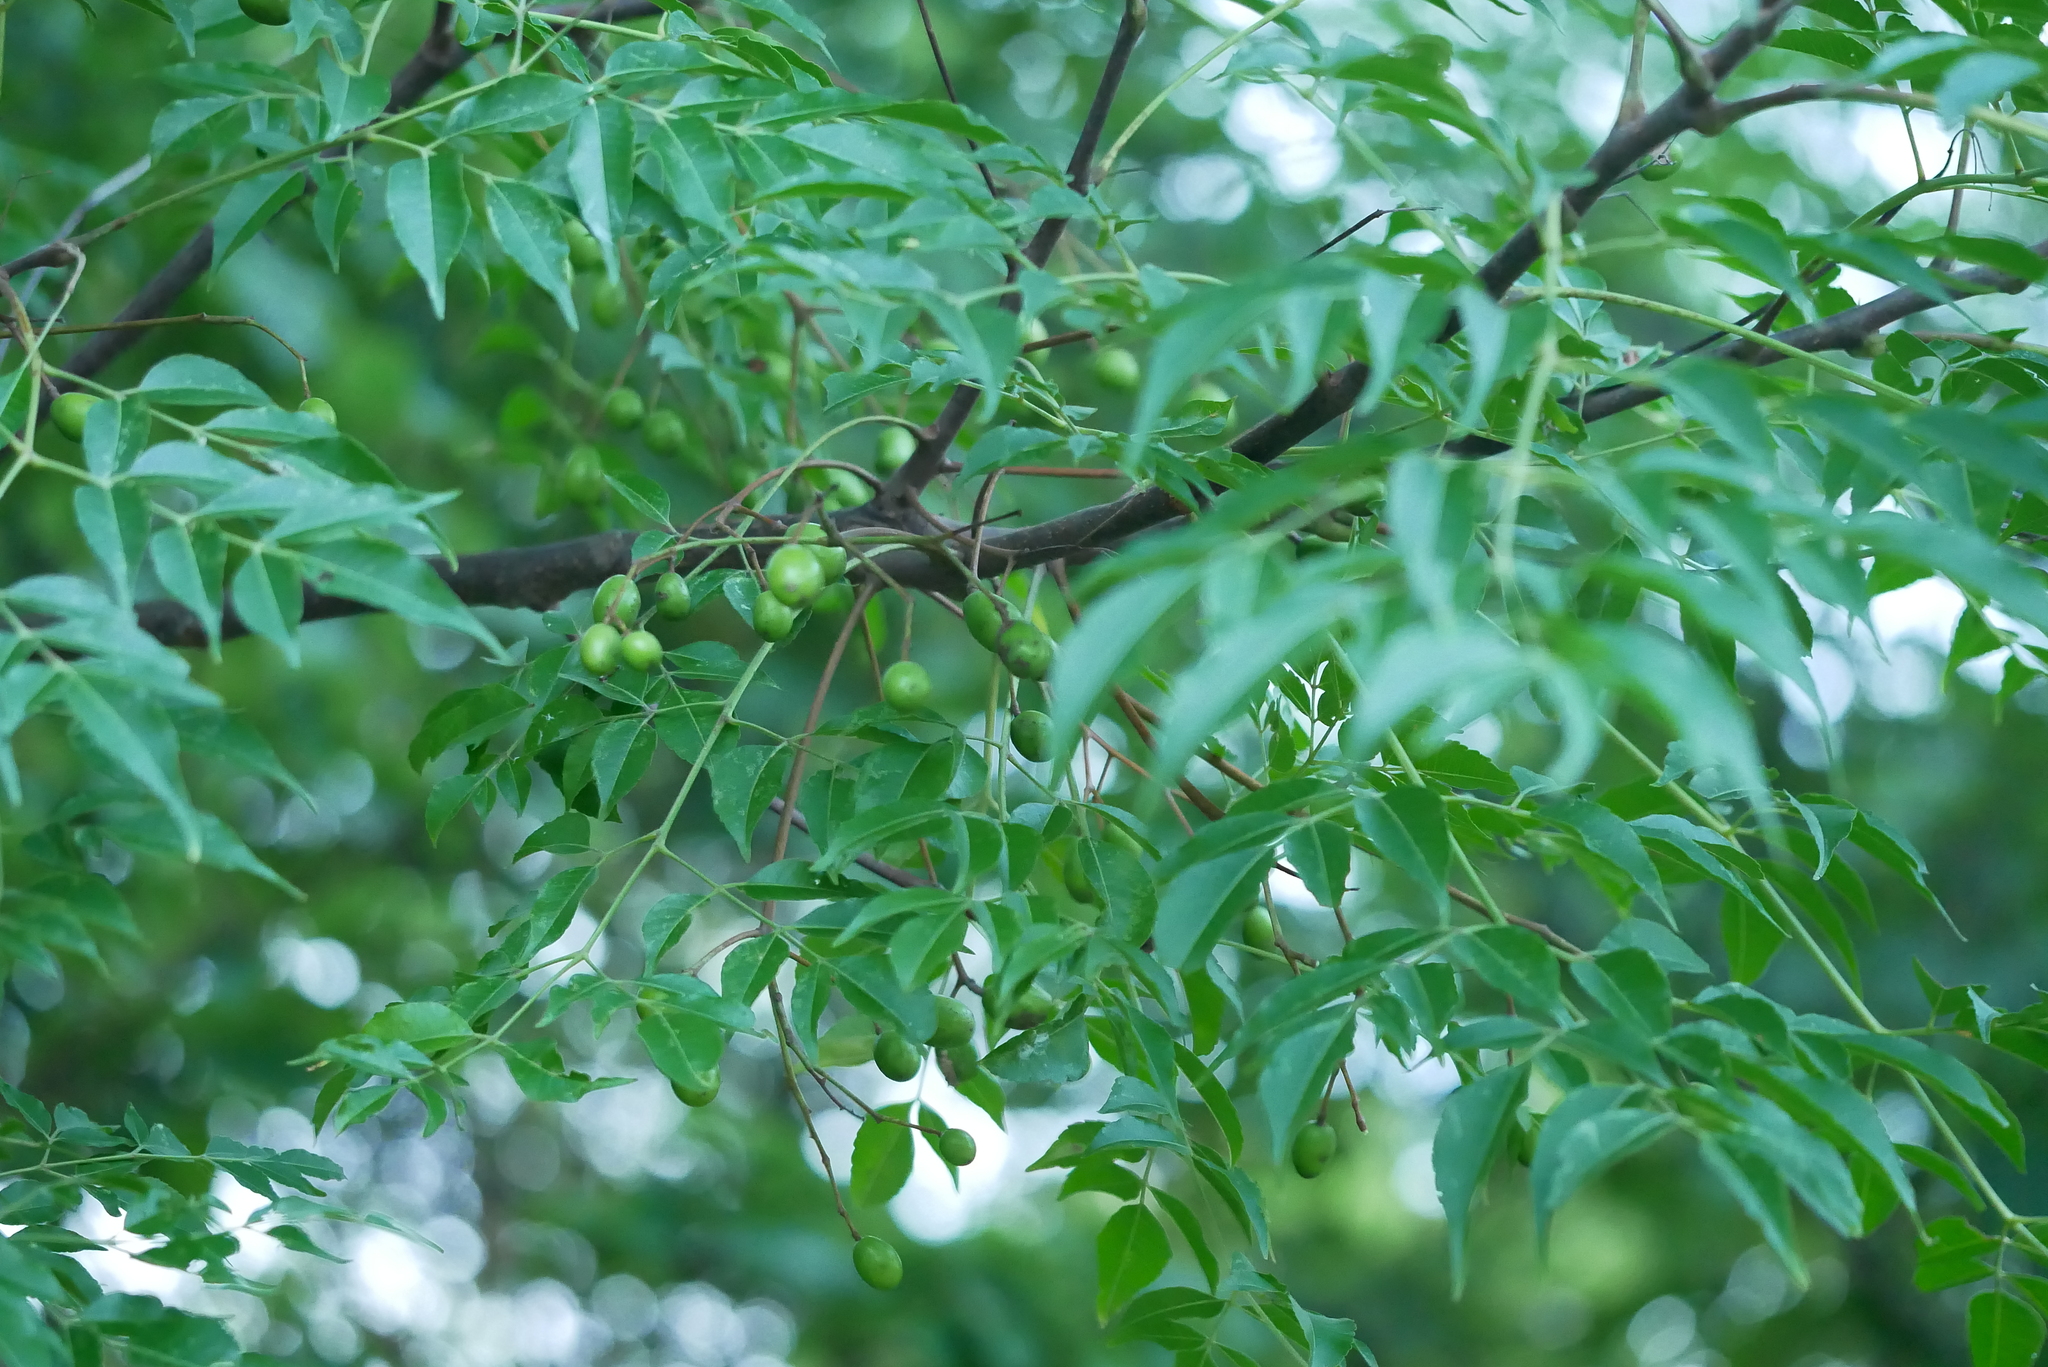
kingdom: Plantae
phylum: Tracheophyta
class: Magnoliopsida
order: Sapindales
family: Meliaceae
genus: Melia
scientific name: Melia azedarach
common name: Chinaberrytree
